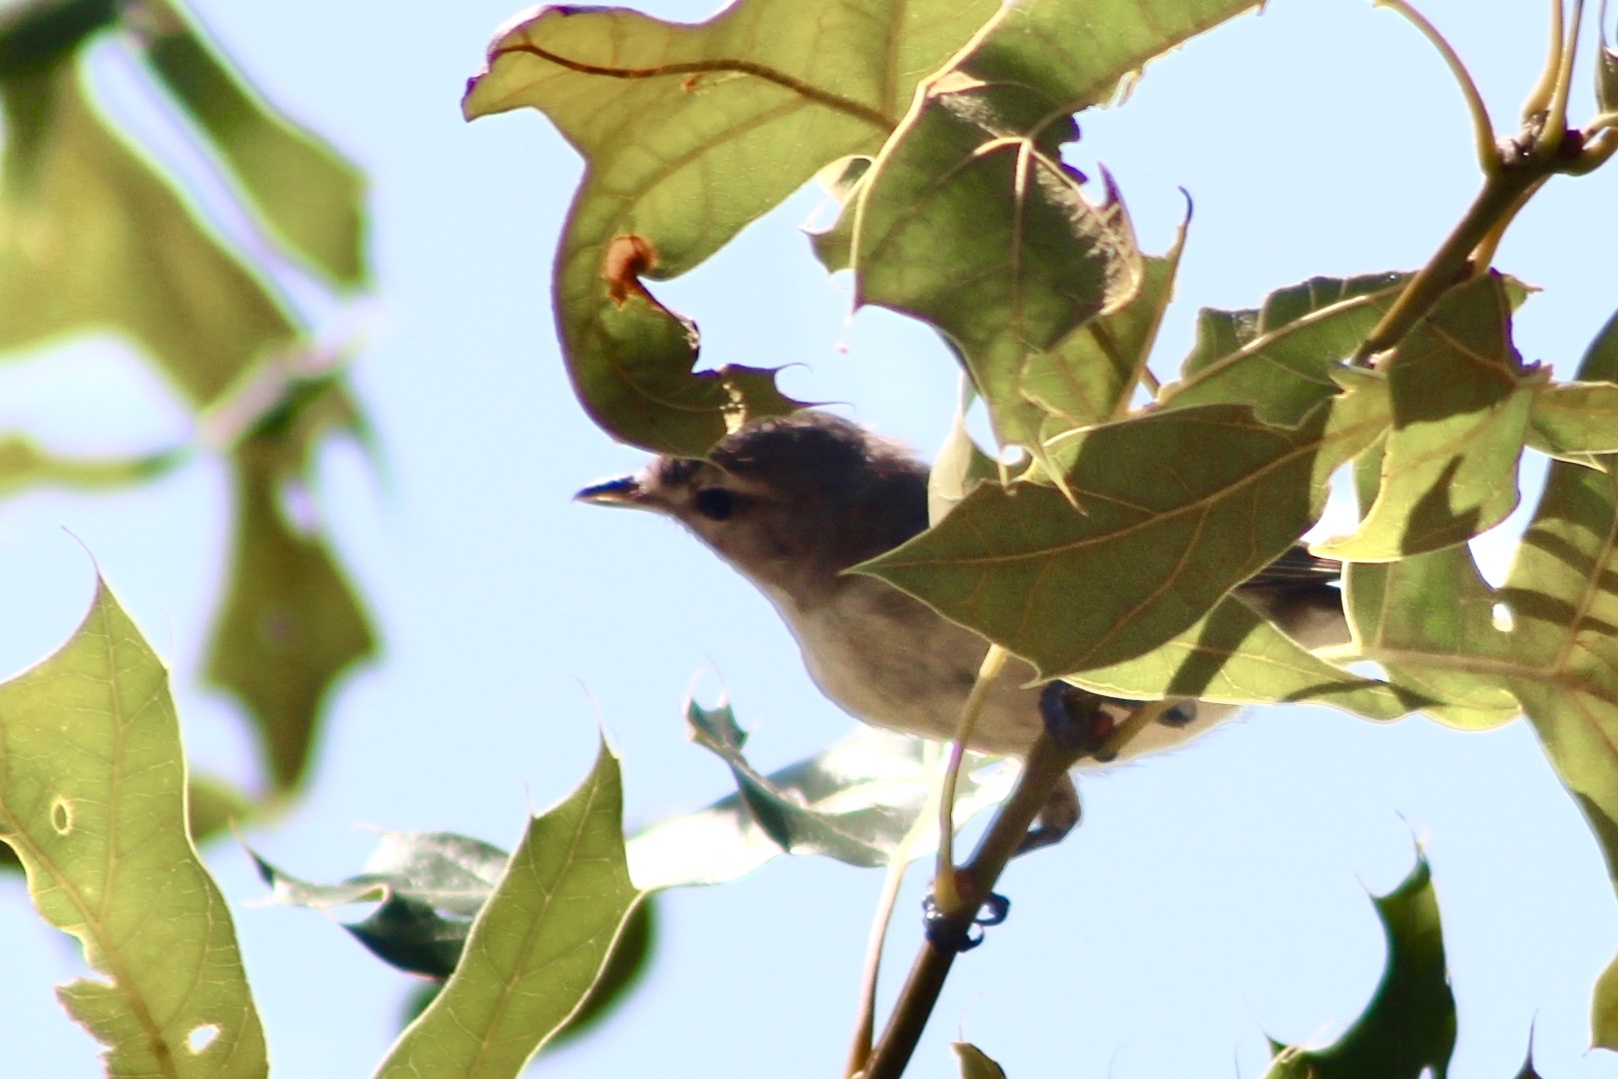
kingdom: Animalia
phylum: Chordata
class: Aves
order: Passeriformes
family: Vireonidae
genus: Vireo
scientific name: Vireo gilvus
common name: Warbling vireo
